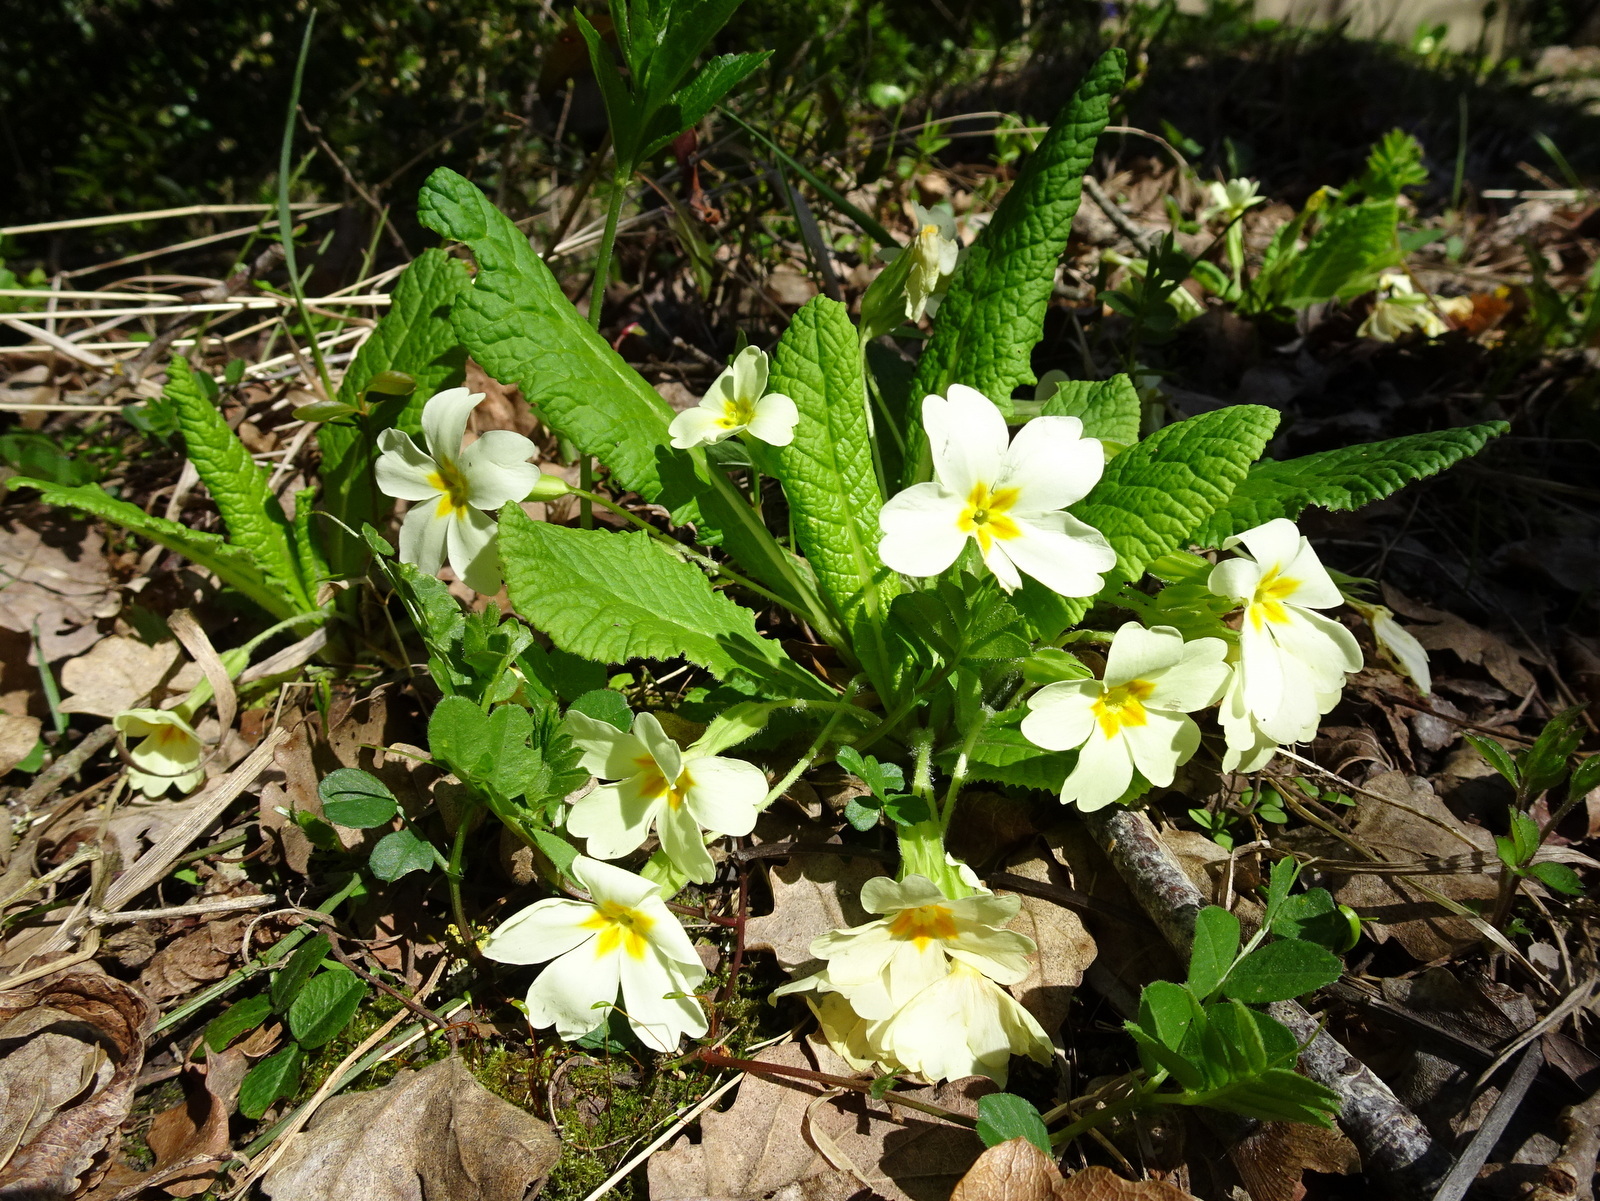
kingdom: Plantae
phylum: Tracheophyta
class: Magnoliopsida
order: Ericales
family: Primulaceae
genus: Primula
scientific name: Primula vulgaris
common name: Primrose
